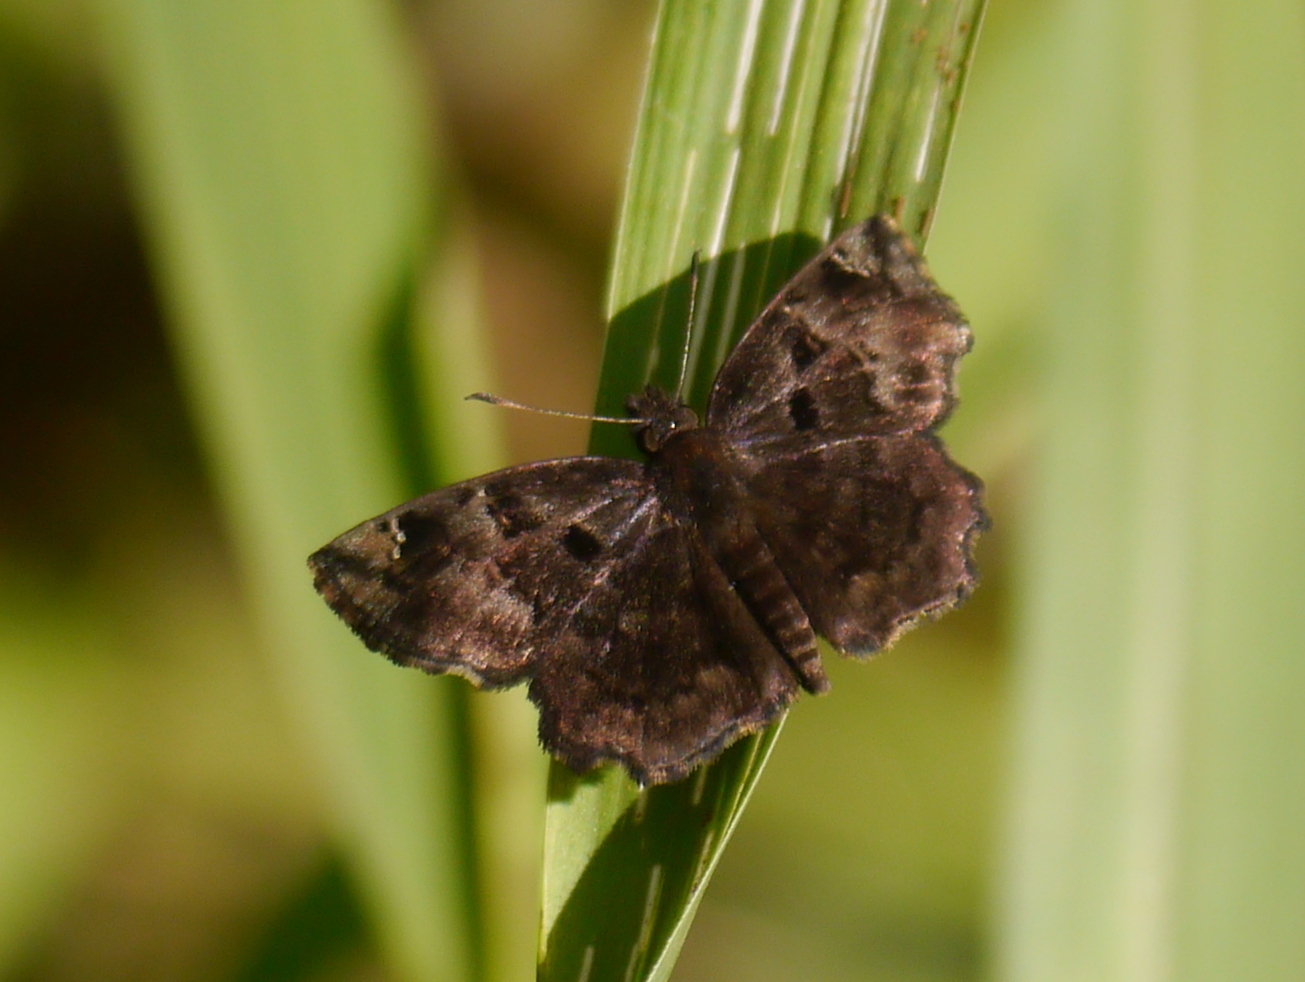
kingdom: Animalia
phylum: Arthropoda
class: Insecta
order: Lepidoptera
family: Hesperiidae
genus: Eretis
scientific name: Eretis lugens
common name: Savanna elf
